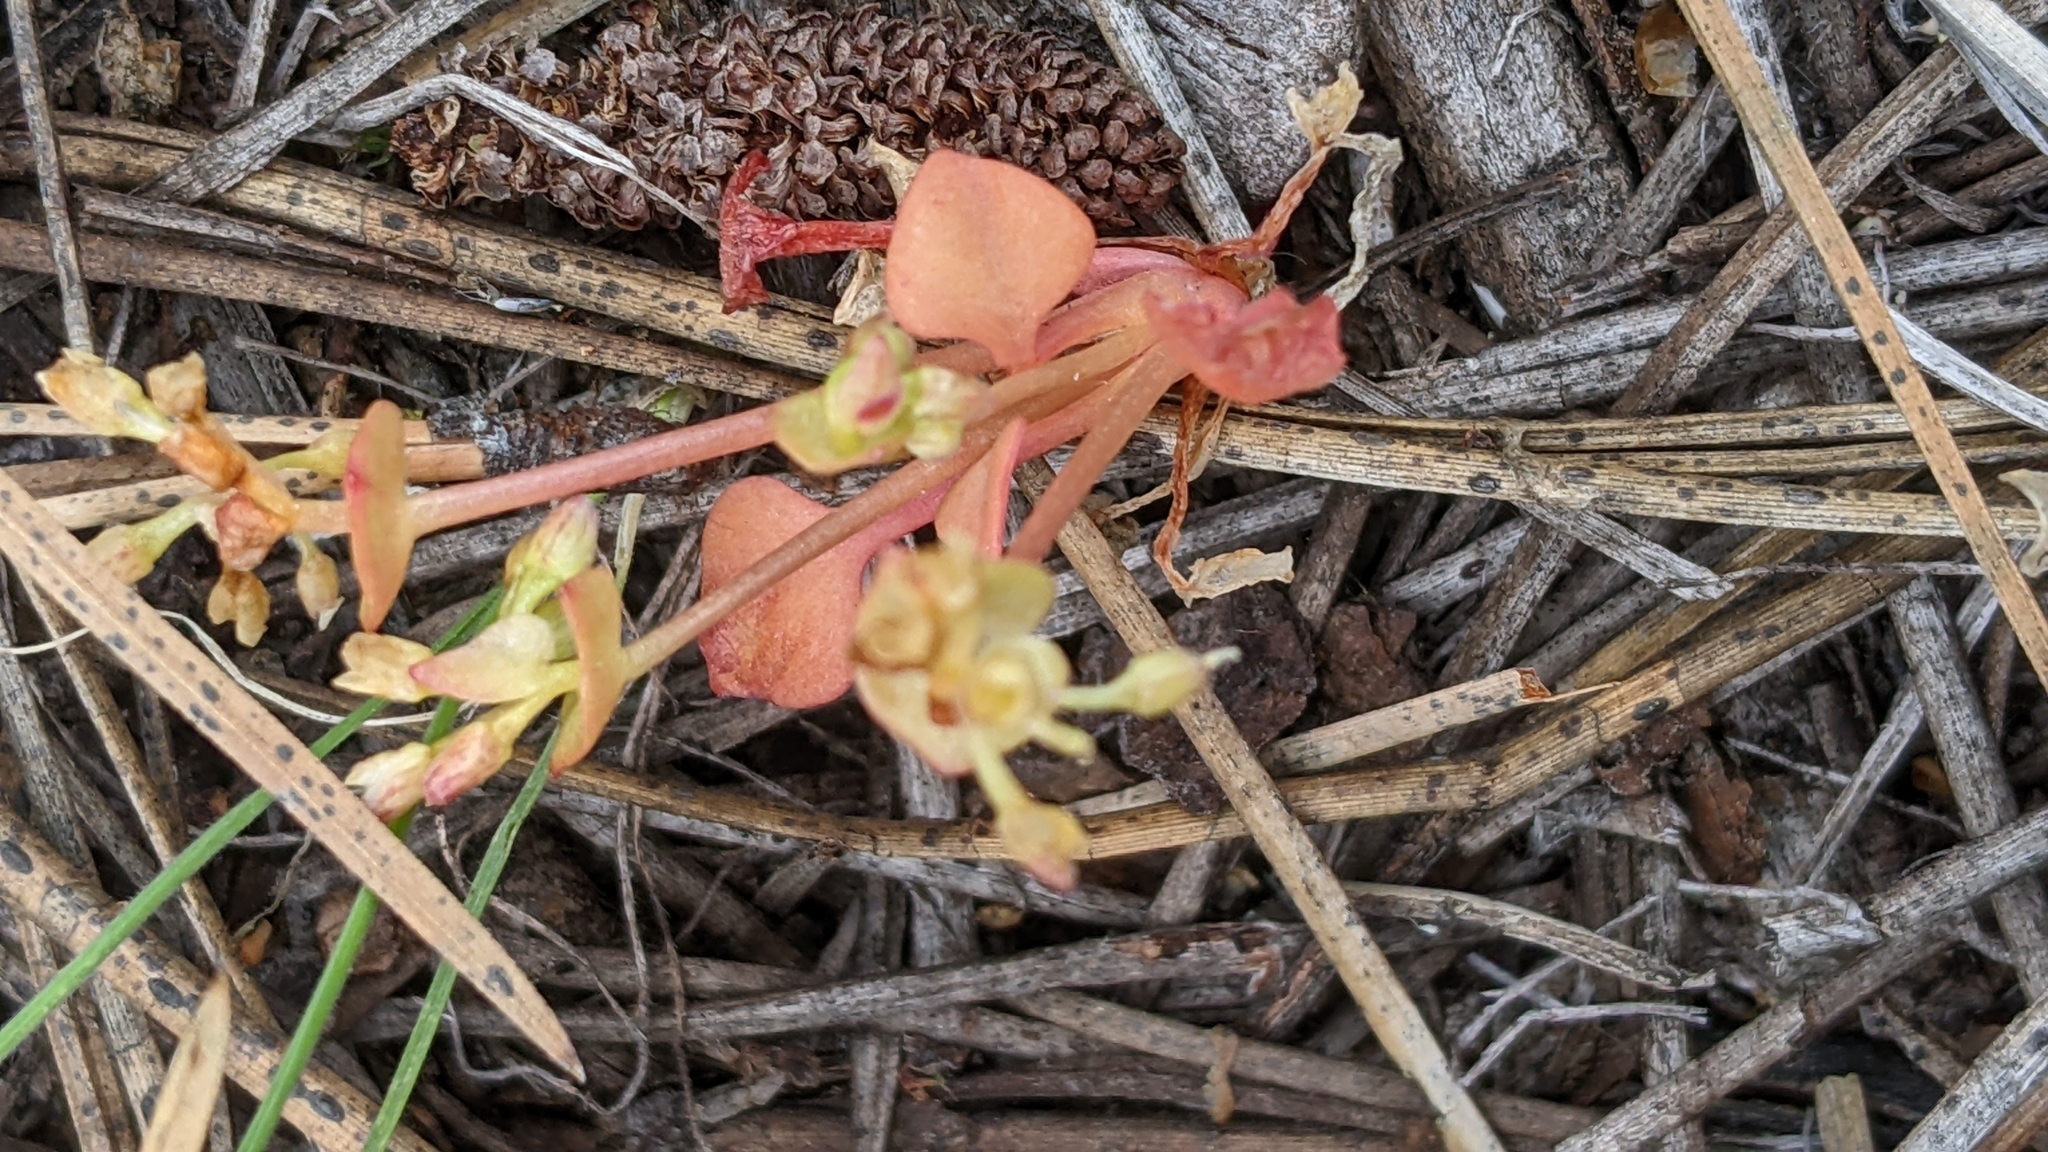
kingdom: Plantae
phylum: Tracheophyta
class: Magnoliopsida
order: Caryophyllales
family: Montiaceae
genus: Claytonia
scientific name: Claytonia rubra
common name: Erubescent miner's-lettuce
